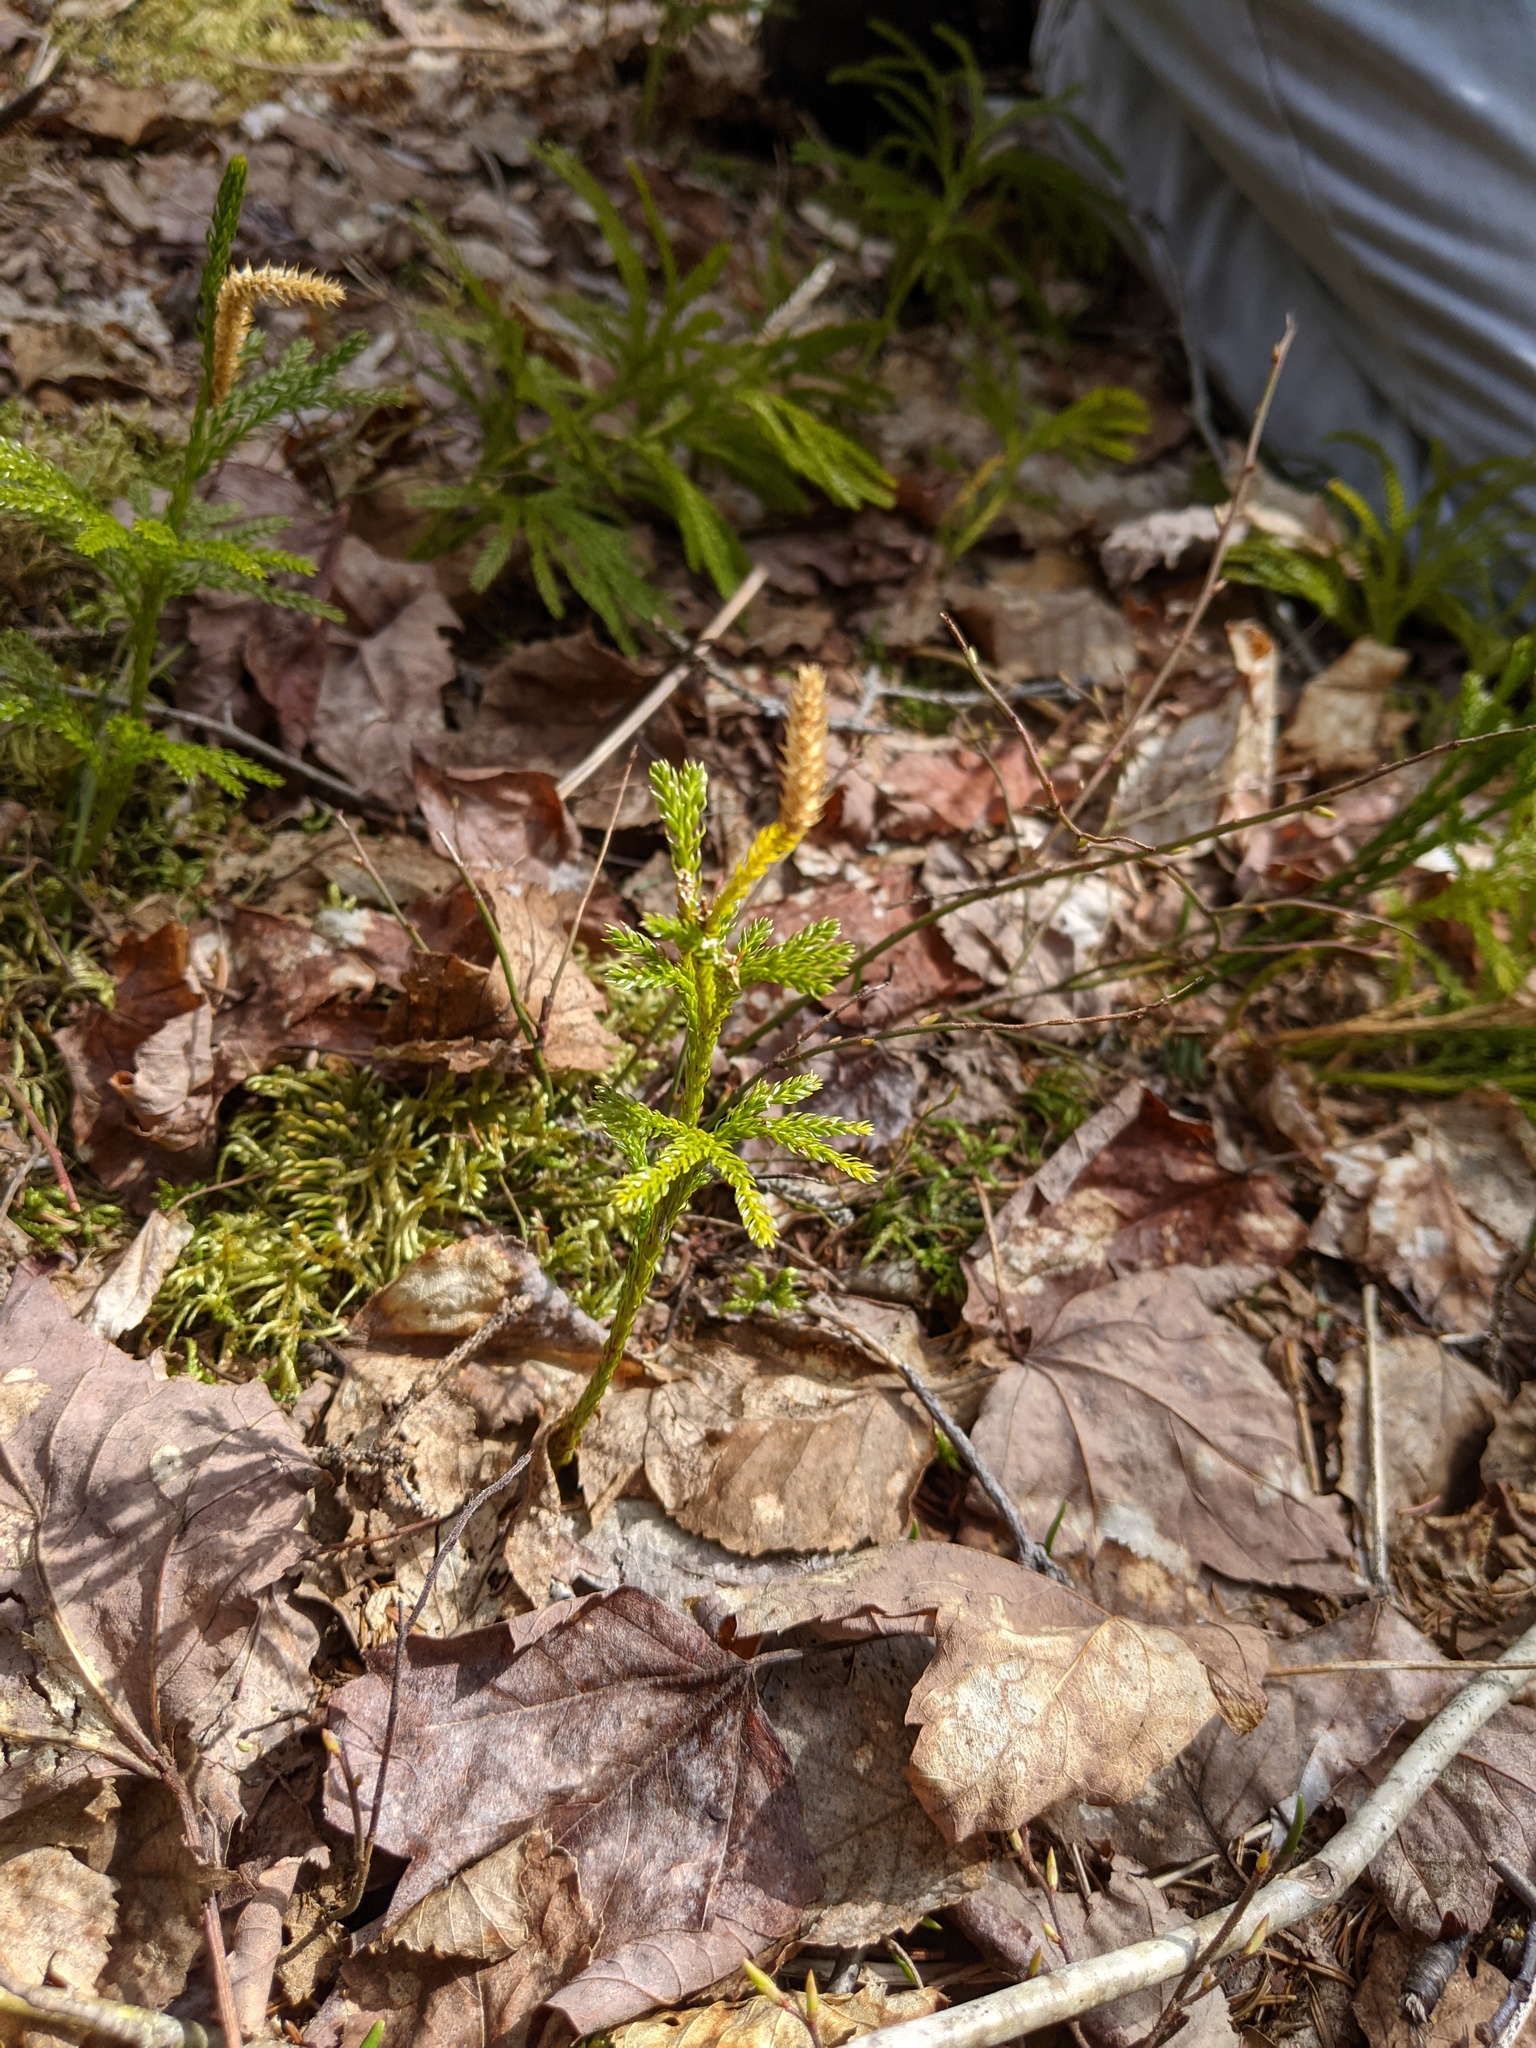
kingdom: Plantae
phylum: Tracheophyta
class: Lycopodiopsida
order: Lycopodiales
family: Lycopodiaceae
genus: Dendrolycopodium
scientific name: Dendrolycopodium hickeyi
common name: Hickey's clubmoss
